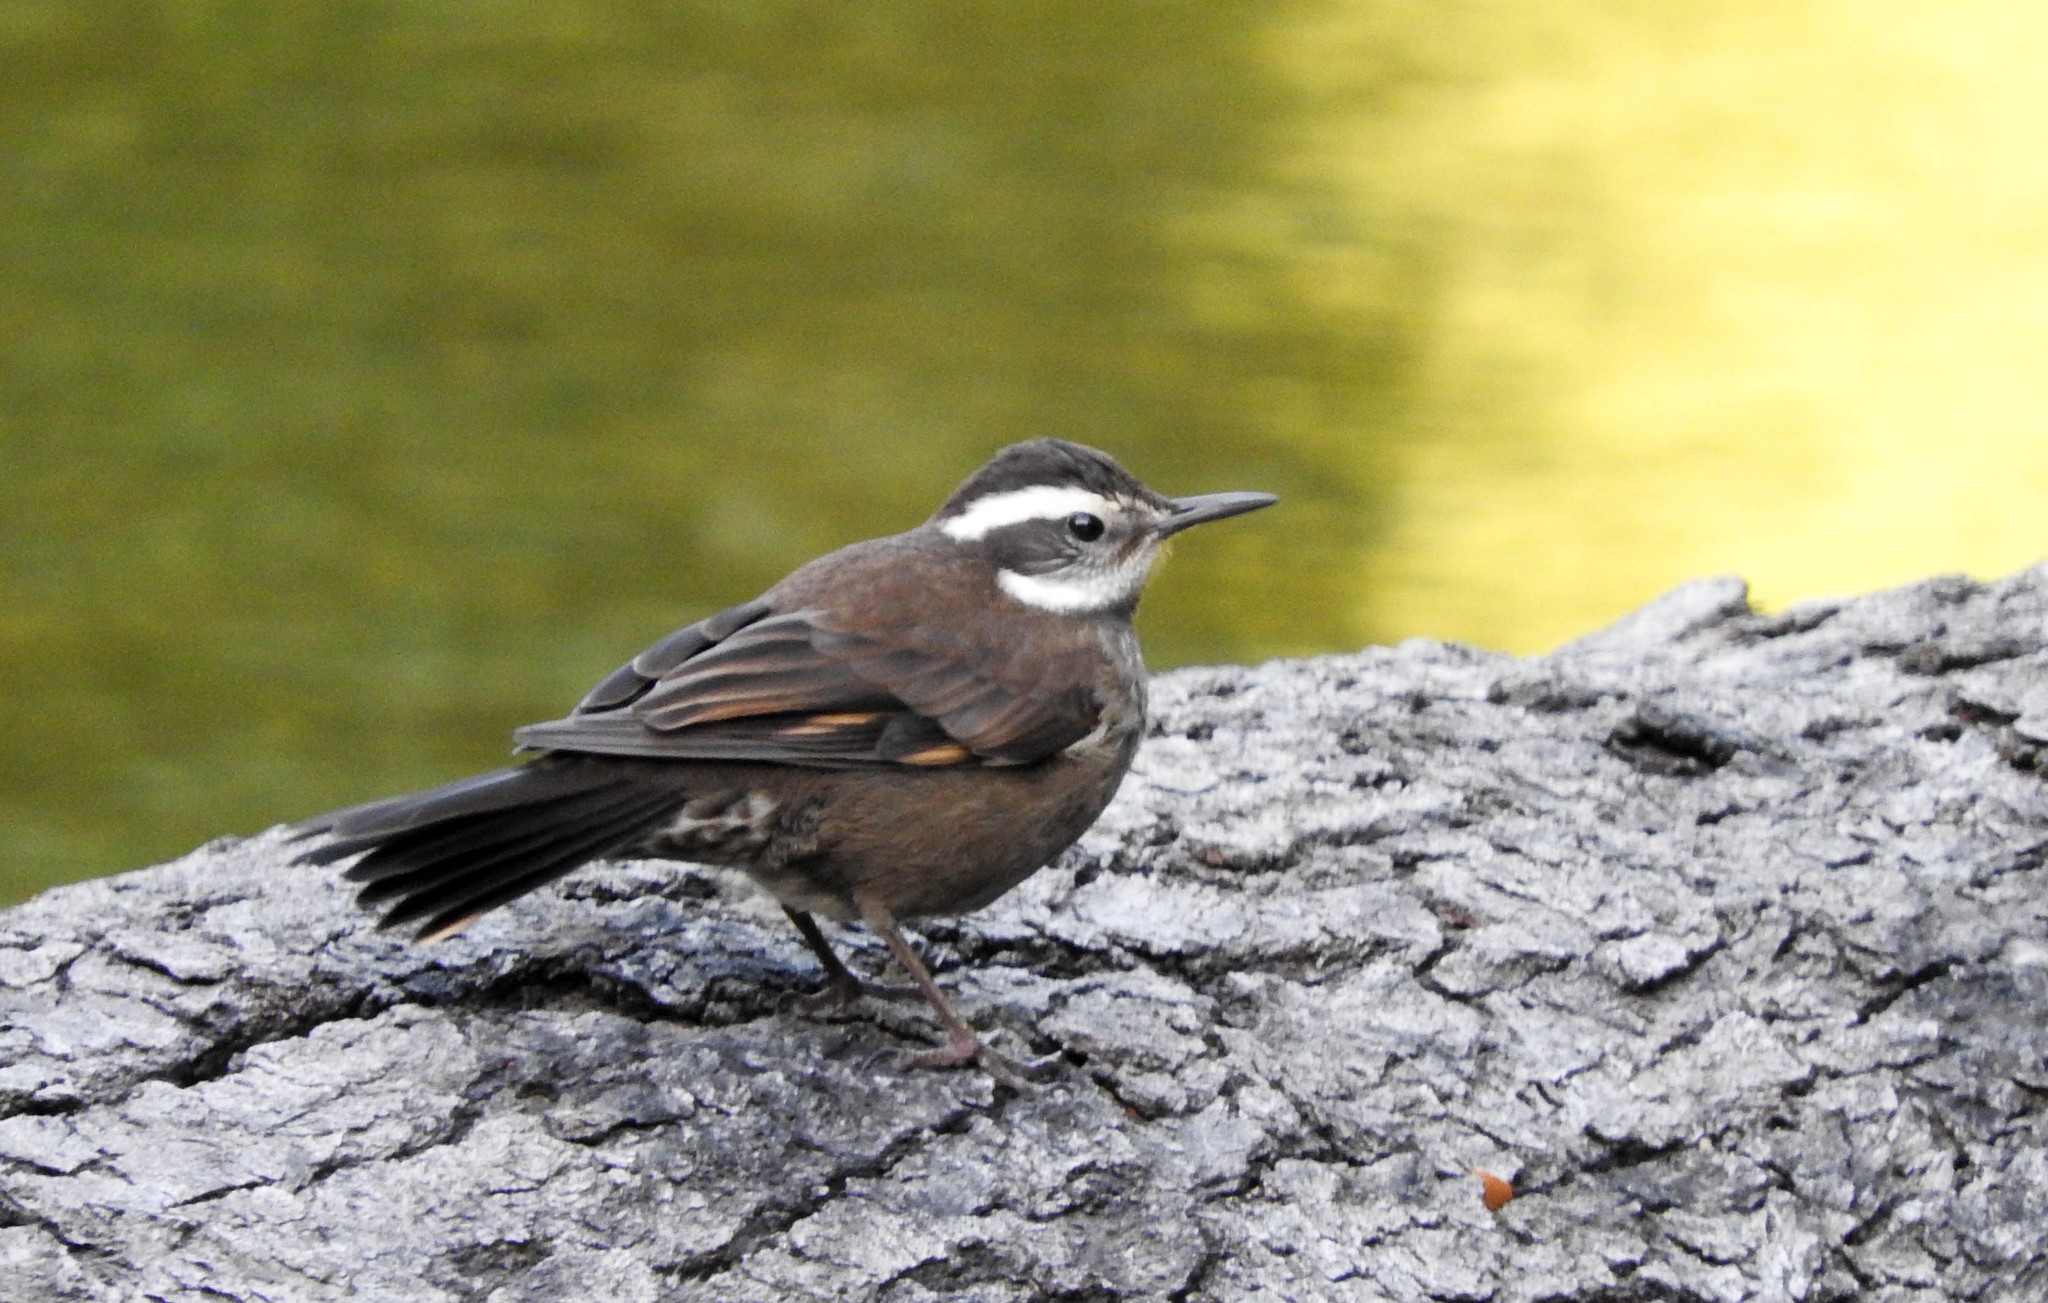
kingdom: Animalia
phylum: Chordata
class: Aves
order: Passeriformes
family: Furnariidae
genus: Cinclodes
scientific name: Cinclodes patagonicus
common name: Dark-bellied cinclodes
